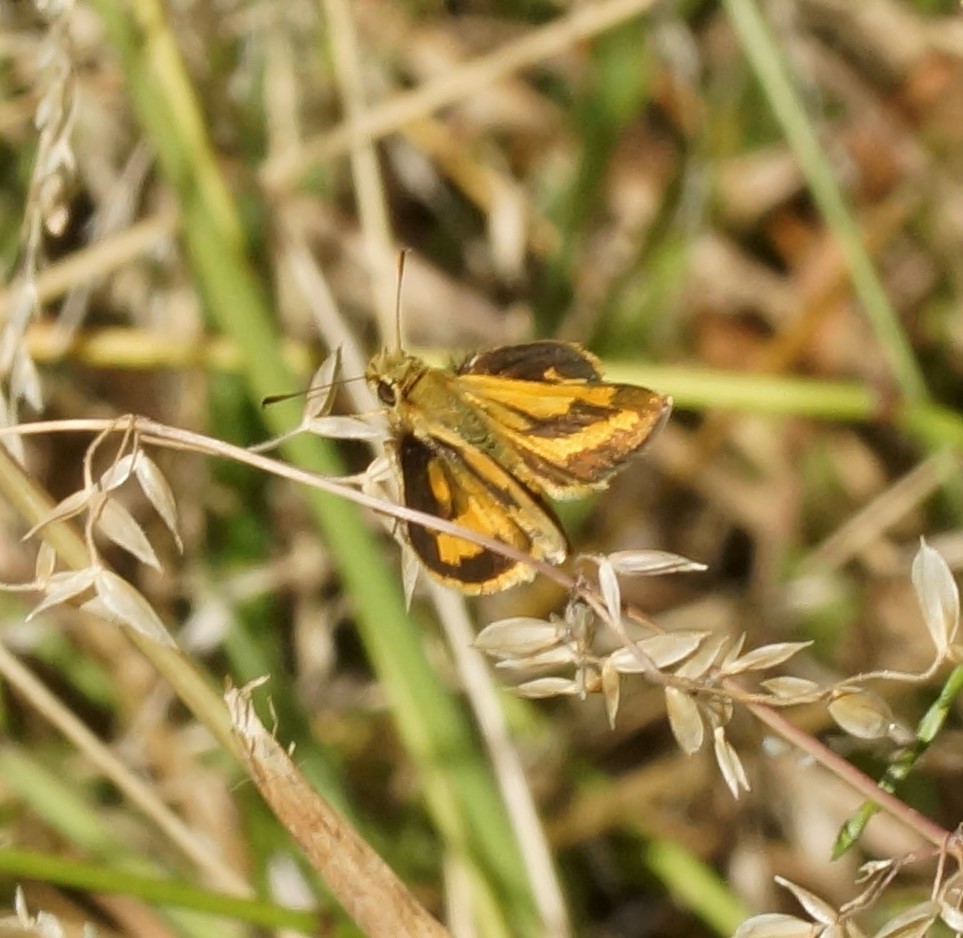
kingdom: Animalia
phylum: Arthropoda
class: Insecta
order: Lepidoptera
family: Hesperiidae
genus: Ocybadistes
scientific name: Ocybadistes walkeri
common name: Yellow-banded dart
